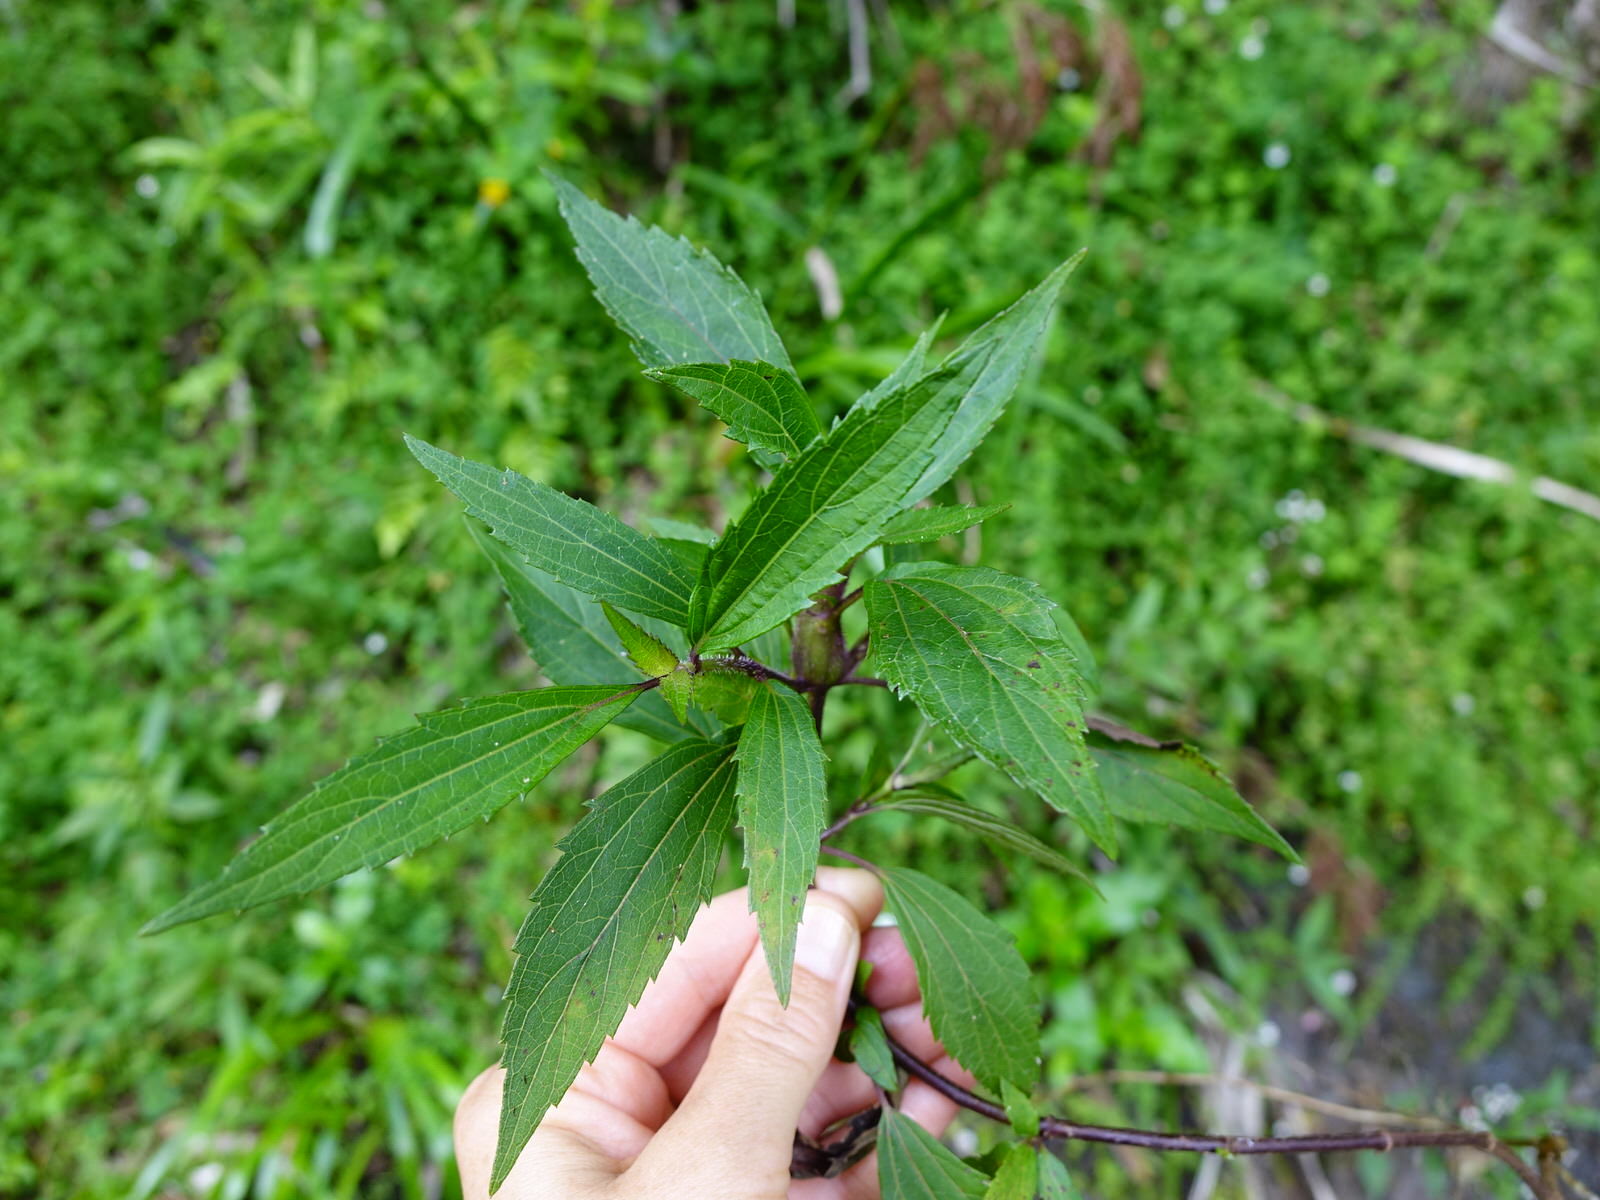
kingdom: Plantae
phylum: Tracheophyta
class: Magnoliopsida
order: Asterales
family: Asteraceae
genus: Ageratina
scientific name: Ageratina riparia
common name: Creeping croftonweed
